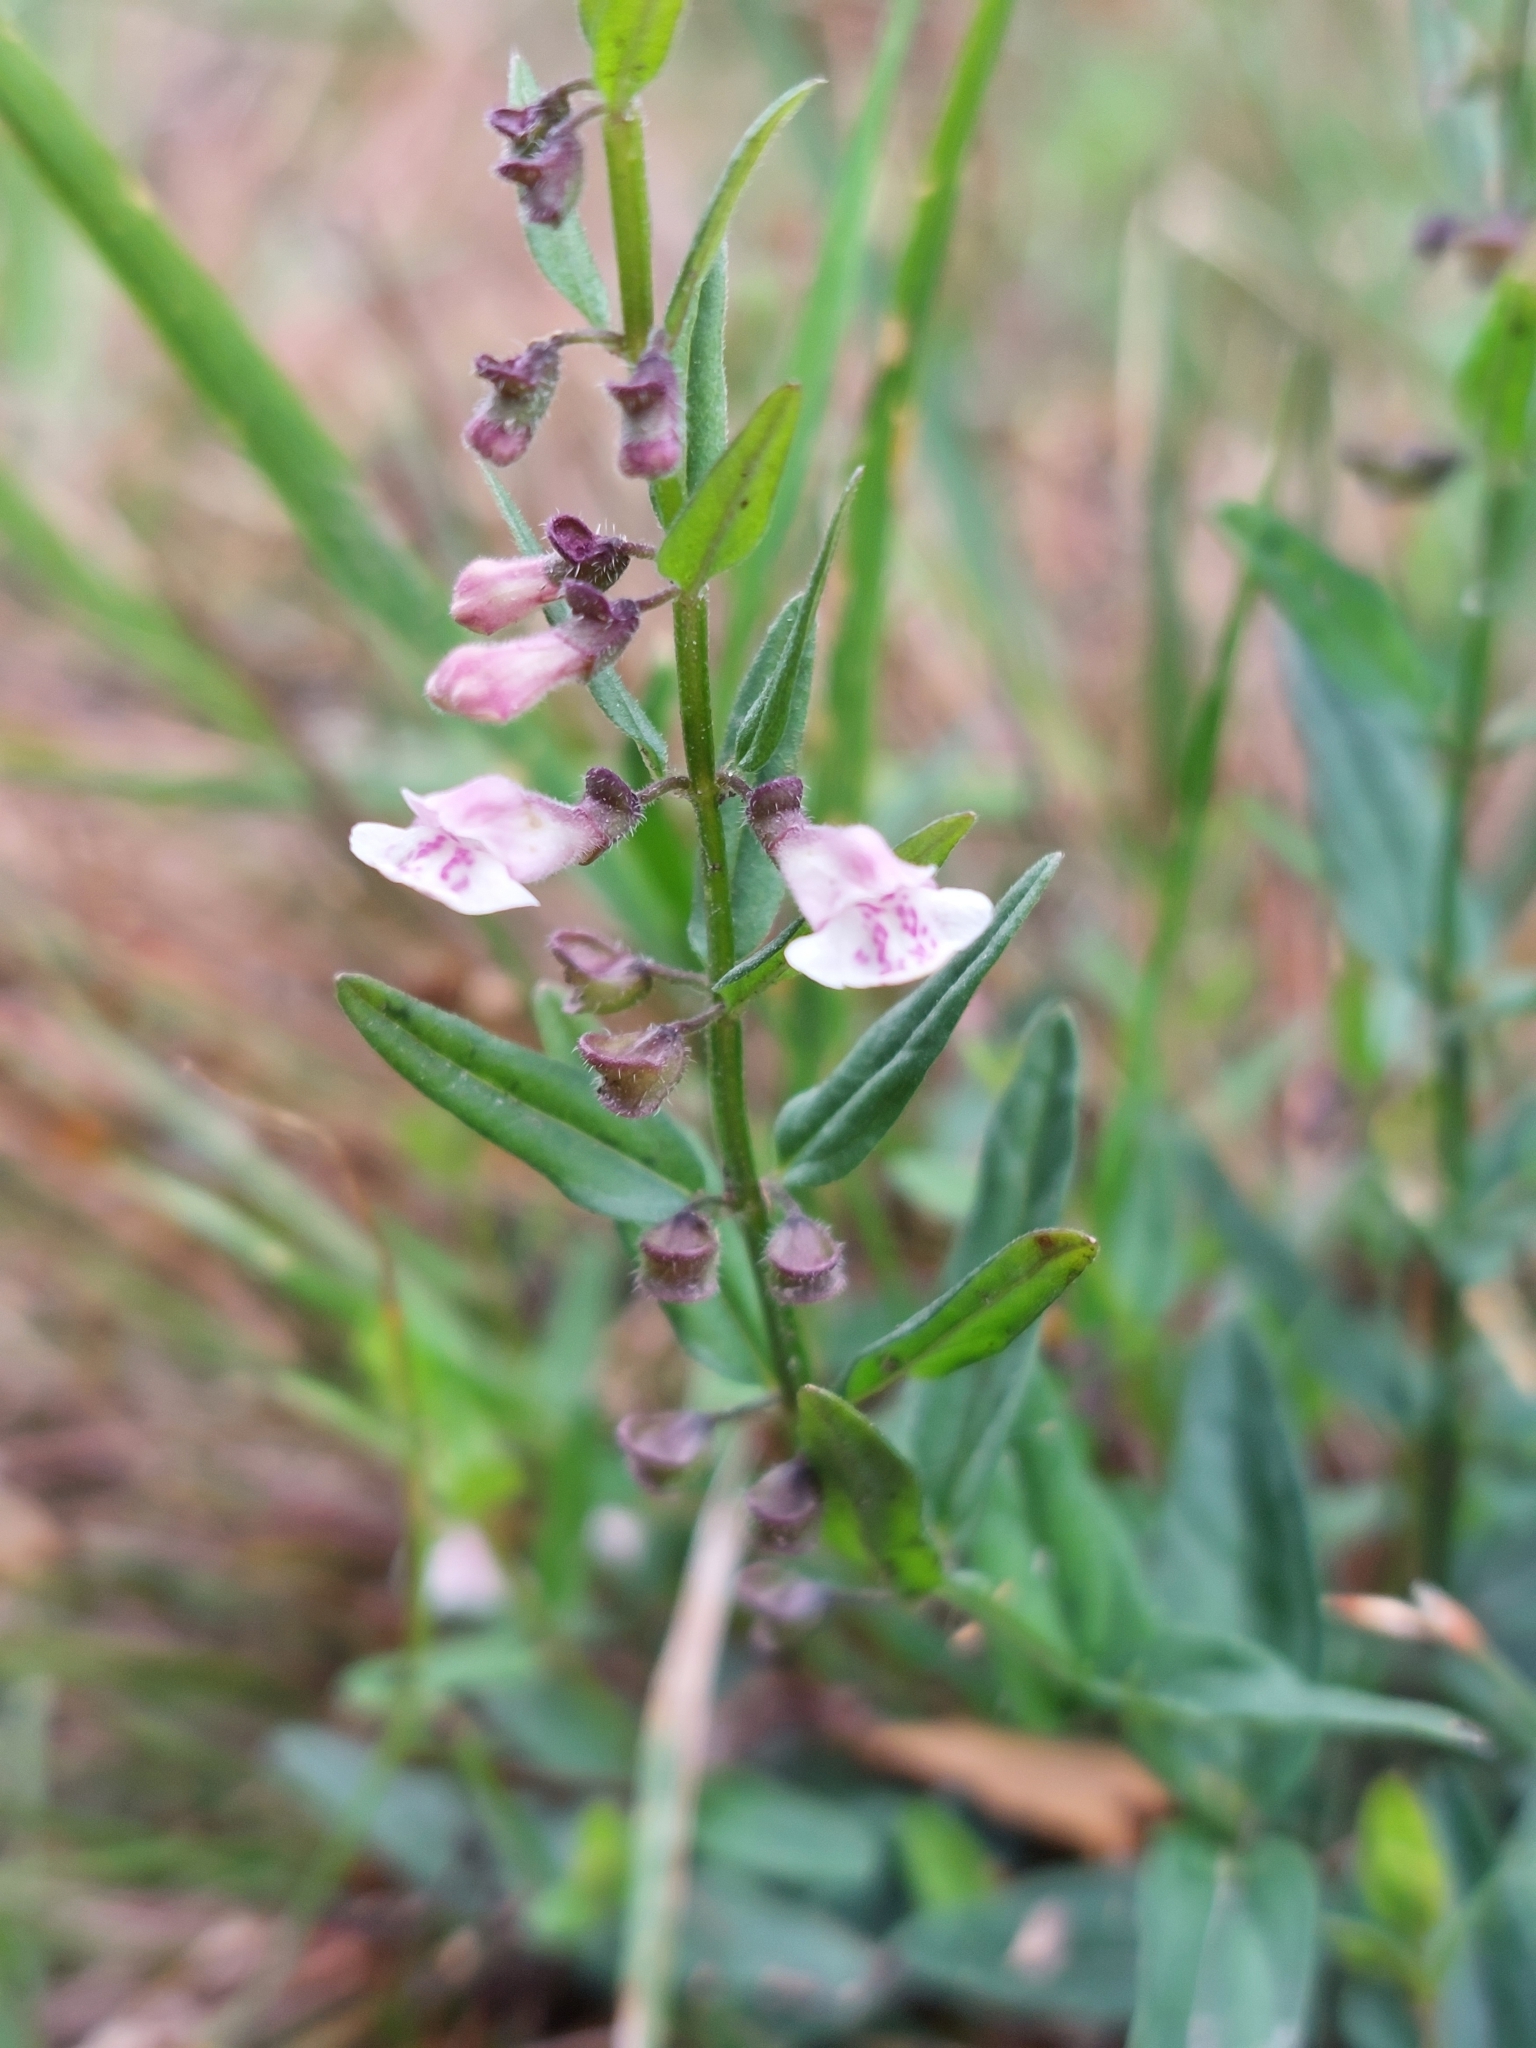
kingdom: Plantae
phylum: Tracheophyta
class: Magnoliopsida
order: Lamiales
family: Lamiaceae
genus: Scutellaria
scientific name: Scutellaria minor
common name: Lesser skullcap
